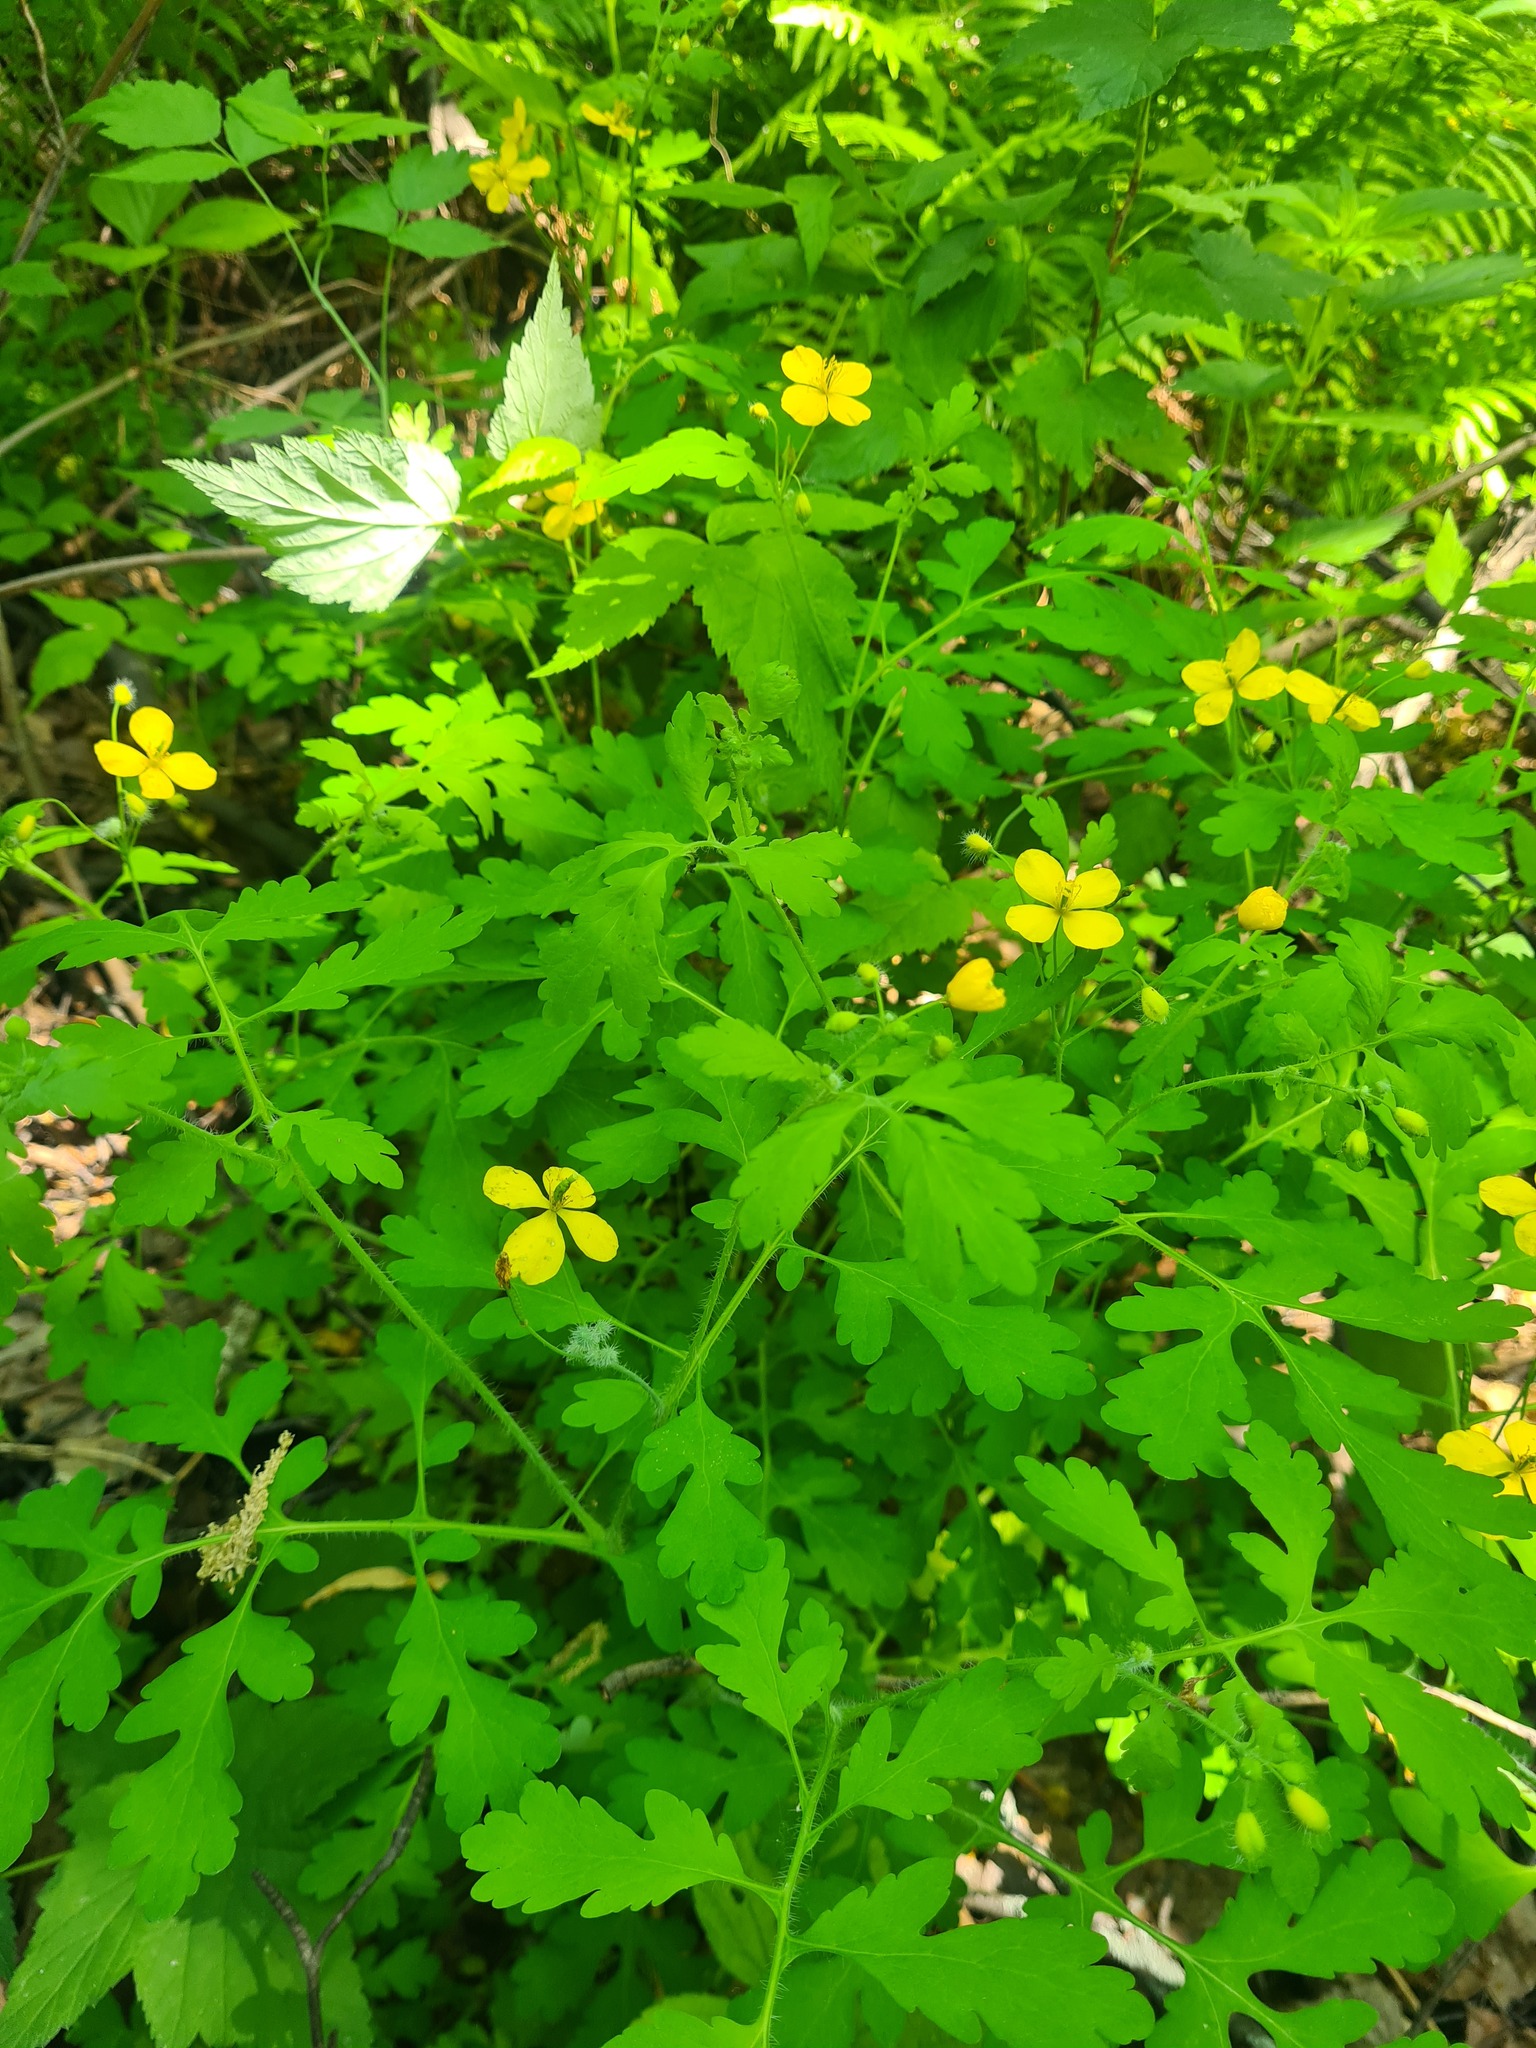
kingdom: Plantae
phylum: Tracheophyta
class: Magnoliopsida
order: Ranunculales
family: Papaveraceae
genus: Chelidonium
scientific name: Chelidonium majus
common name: Greater celandine
